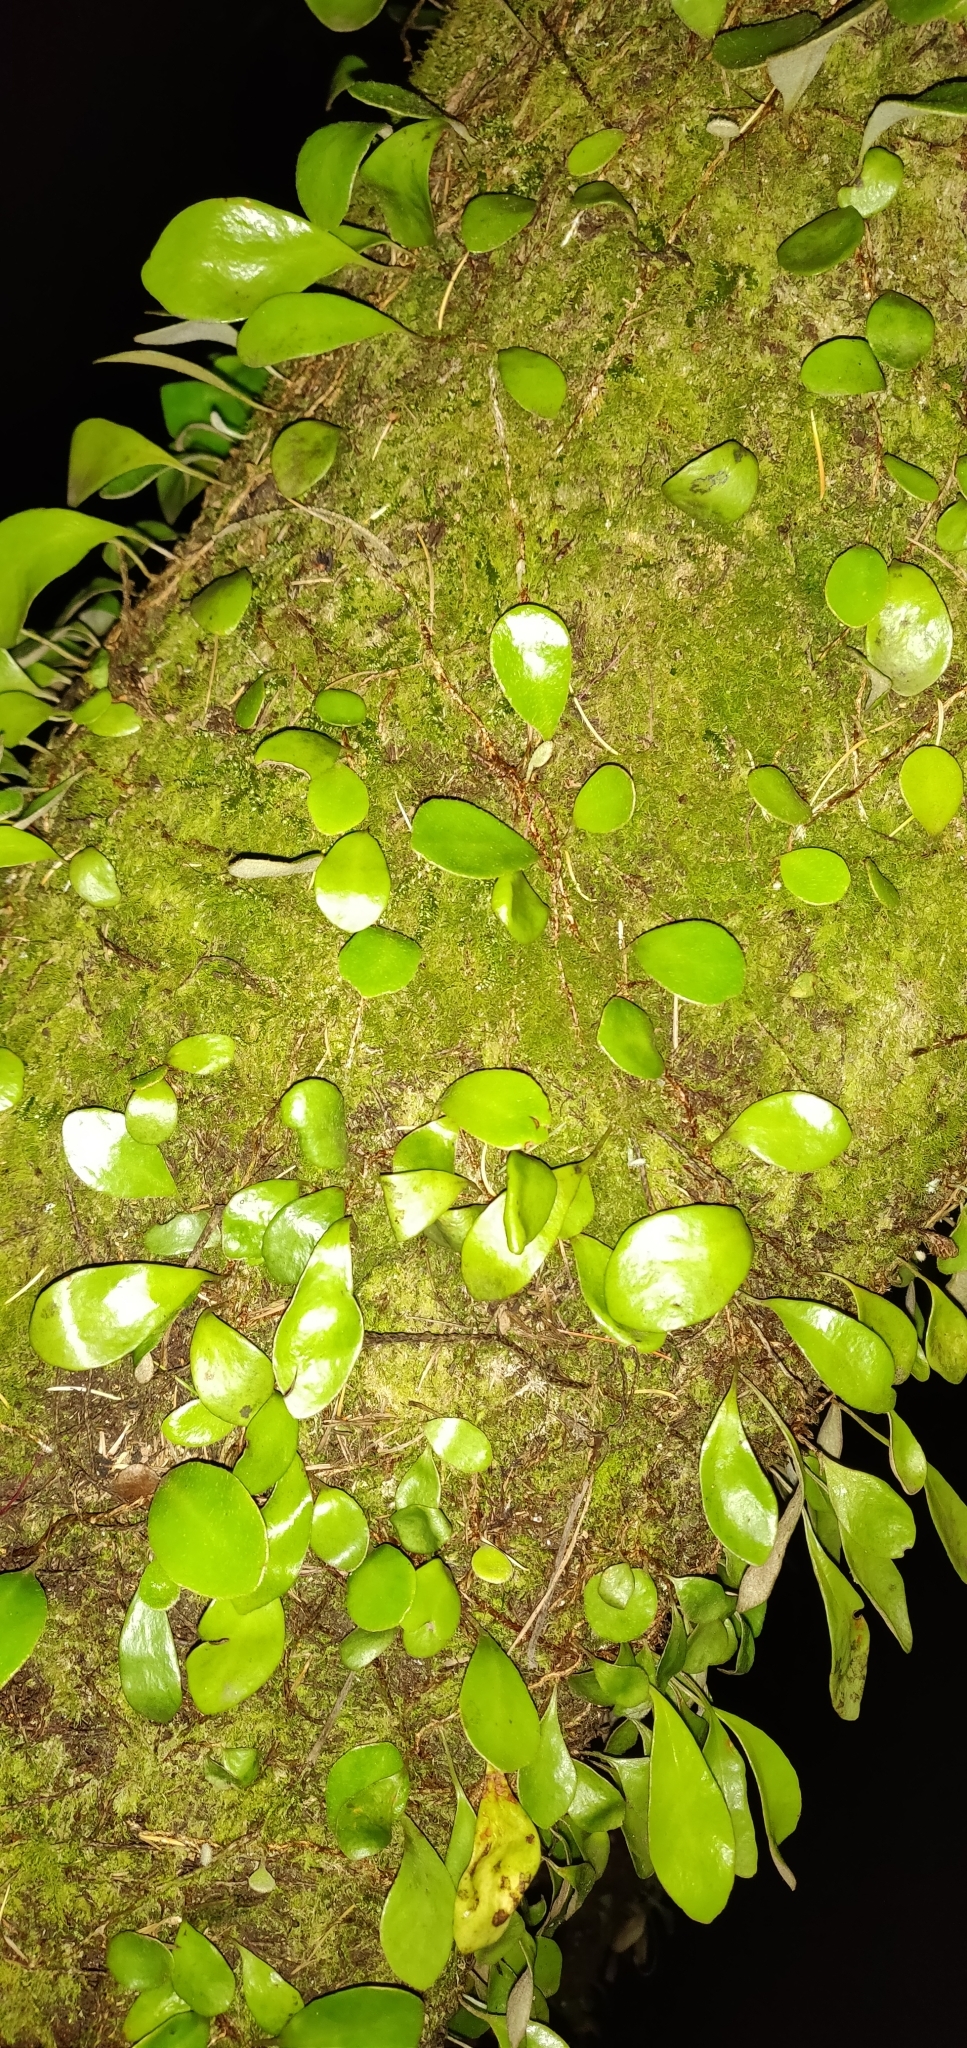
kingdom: Plantae
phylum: Tracheophyta
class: Polypodiopsida
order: Polypodiales
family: Polypodiaceae
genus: Pyrrosia
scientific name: Pyrrosia eleagnifolia
